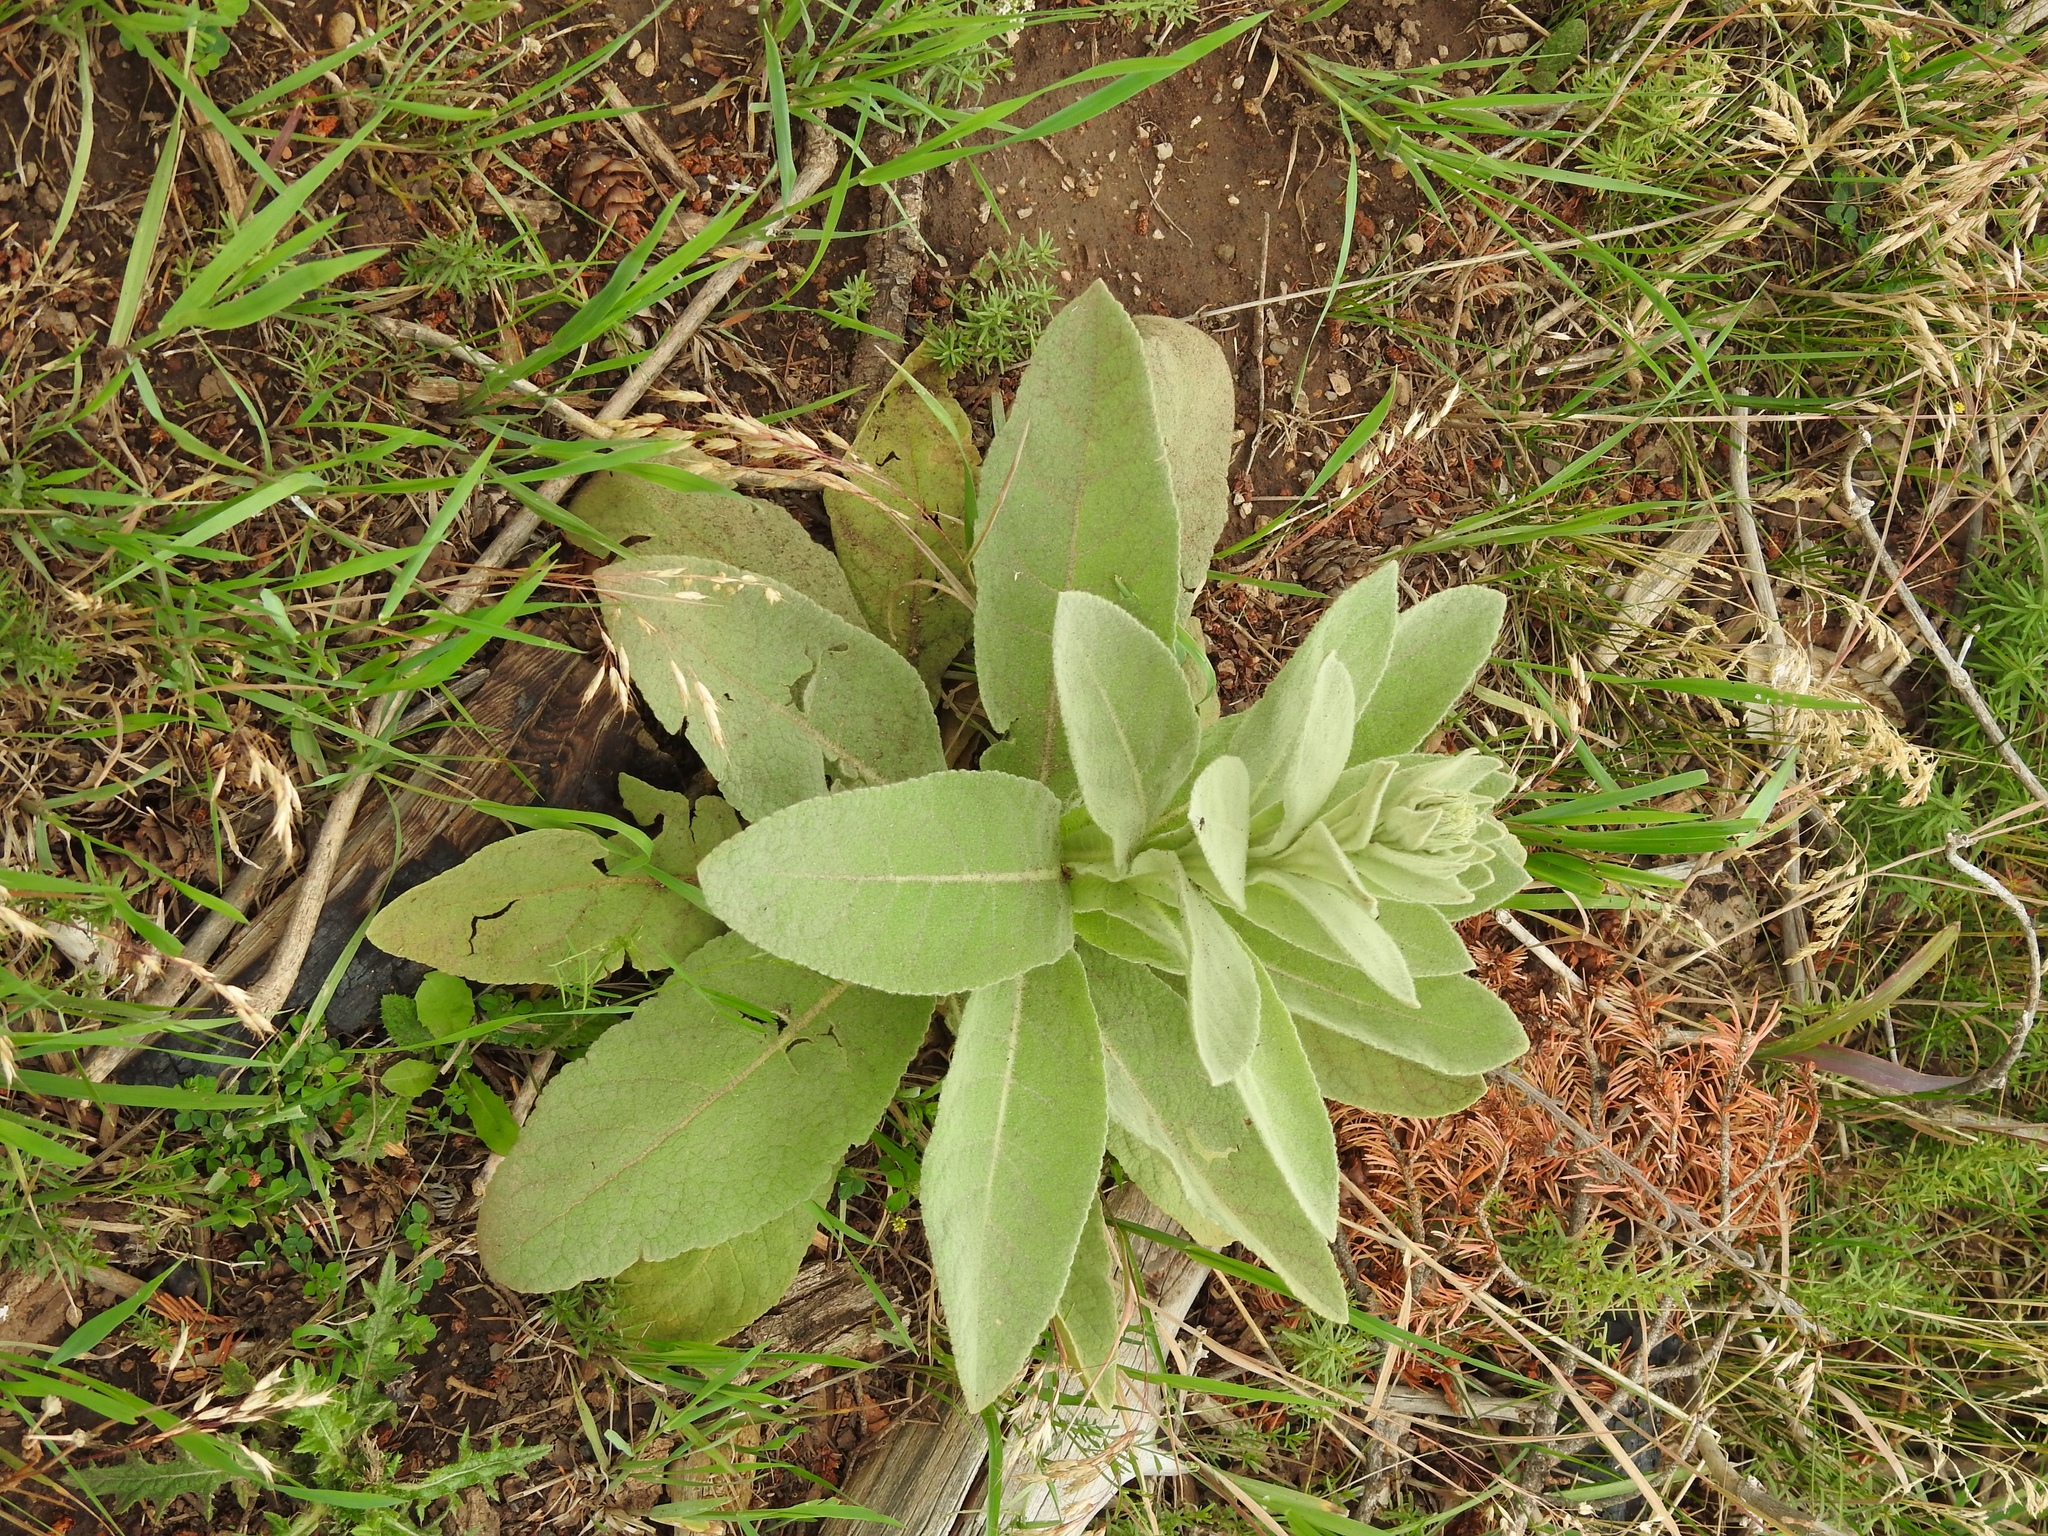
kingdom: Plantae
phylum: Tracheophyta
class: Magnoliopsida
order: Lamiales
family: Scrophulariaceae
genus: Verbascum
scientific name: Verbascum thapsus
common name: Common mullein
